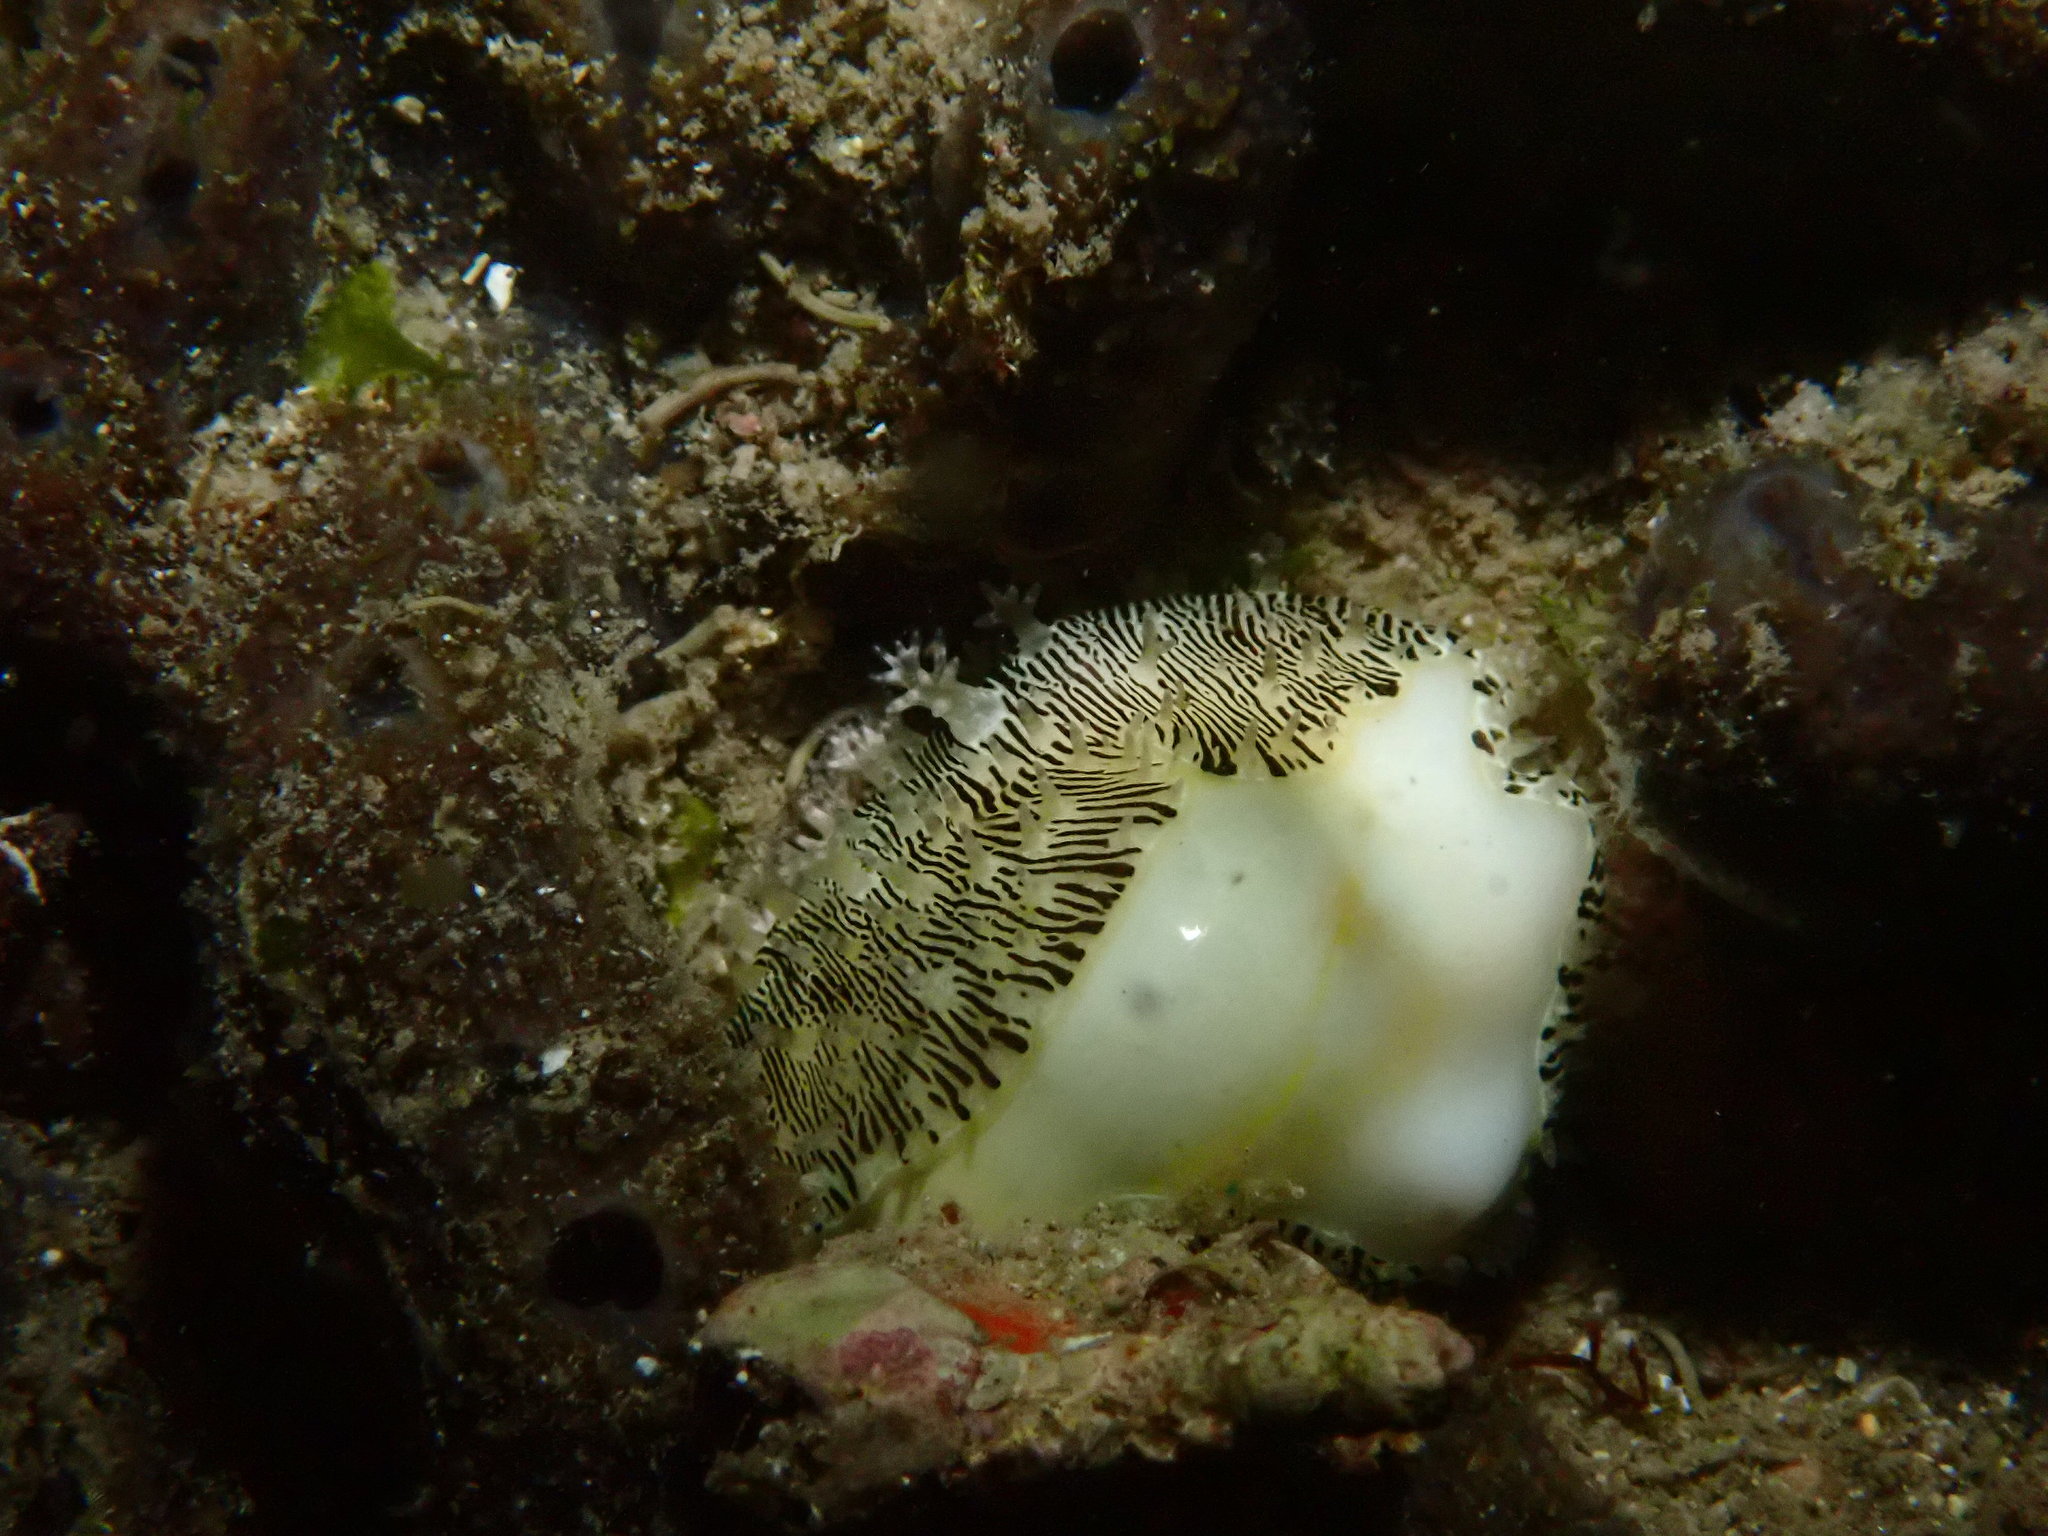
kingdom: Animalia
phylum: Mollusca
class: Gastropoda
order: Littorinimorpha
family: Cypraeidae
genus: Monetaria
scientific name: Monetaria moneta
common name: Money cowrie
